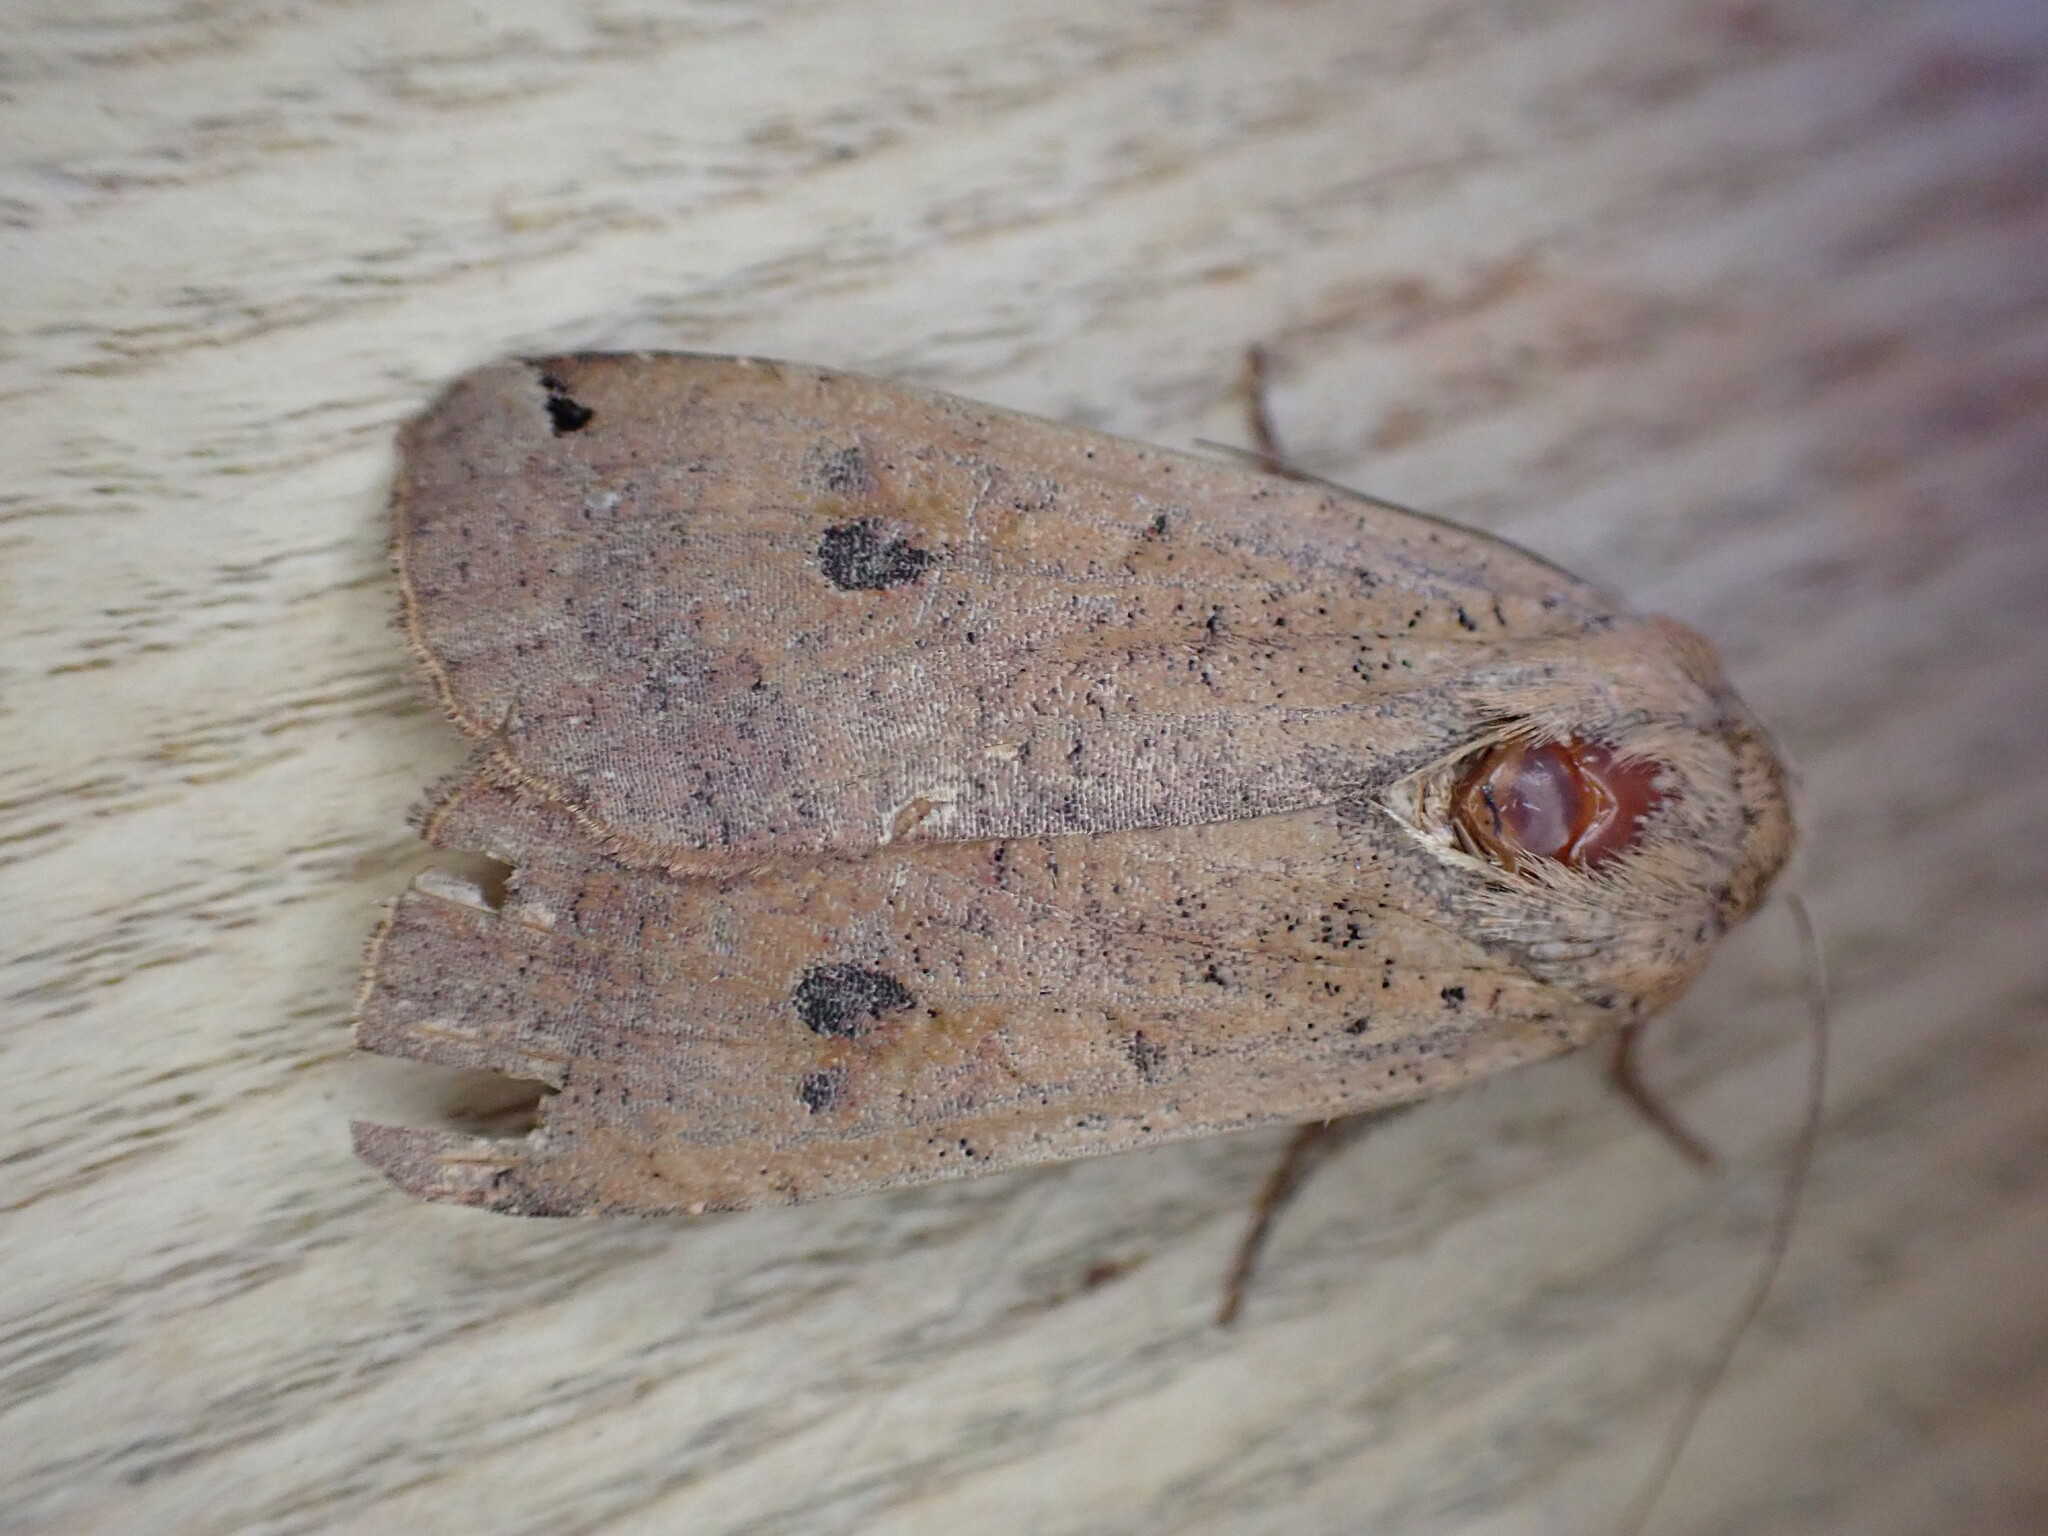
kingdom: Animalia
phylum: Arthropoda
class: Insecta
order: Lepidoptera
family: Noctuidae
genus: Noctua
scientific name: Noctua pronuba
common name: Large yellow underwing
